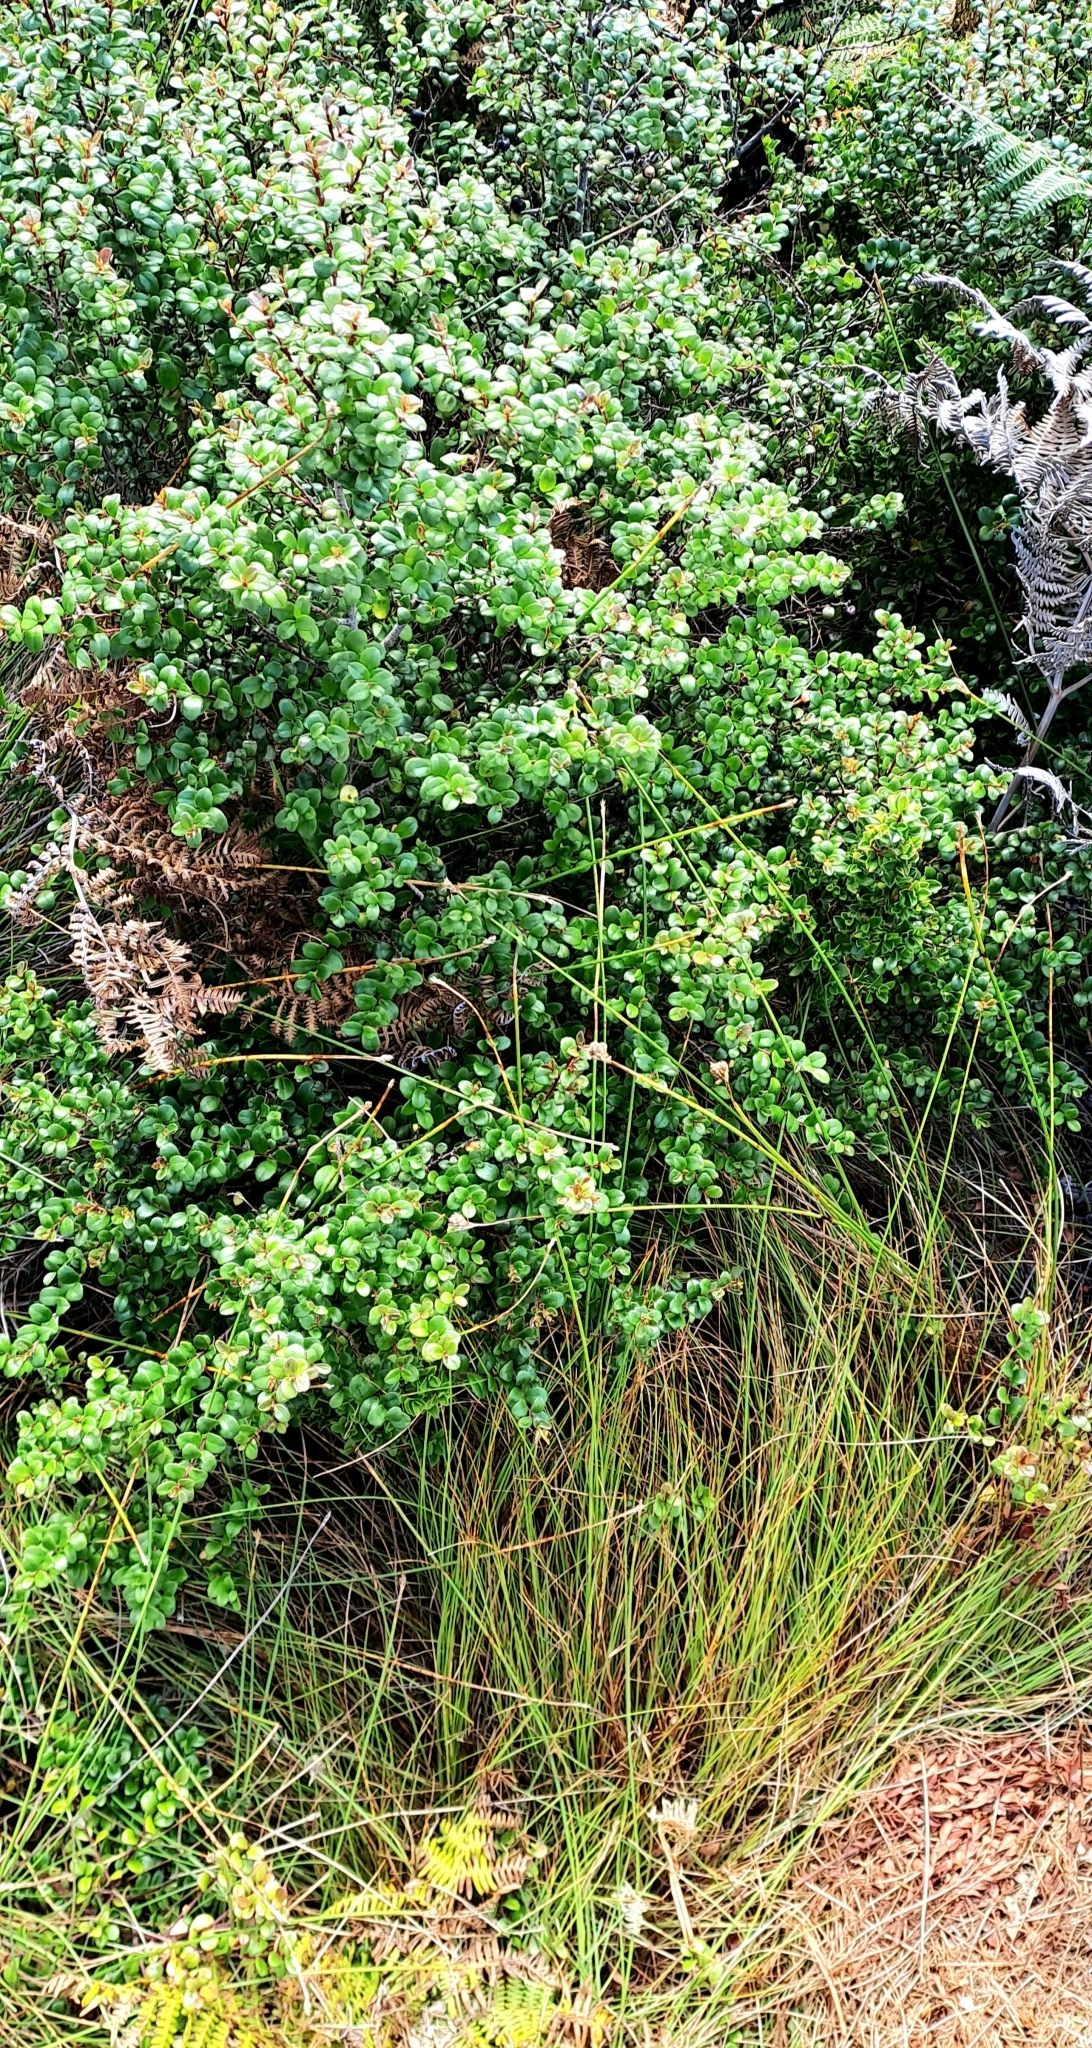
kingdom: Plantae
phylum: Tracheophyta
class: Magnoliopsida
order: Ericales
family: Primulaceae
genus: Myrsine
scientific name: Myrsine africana
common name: African-boxwood
